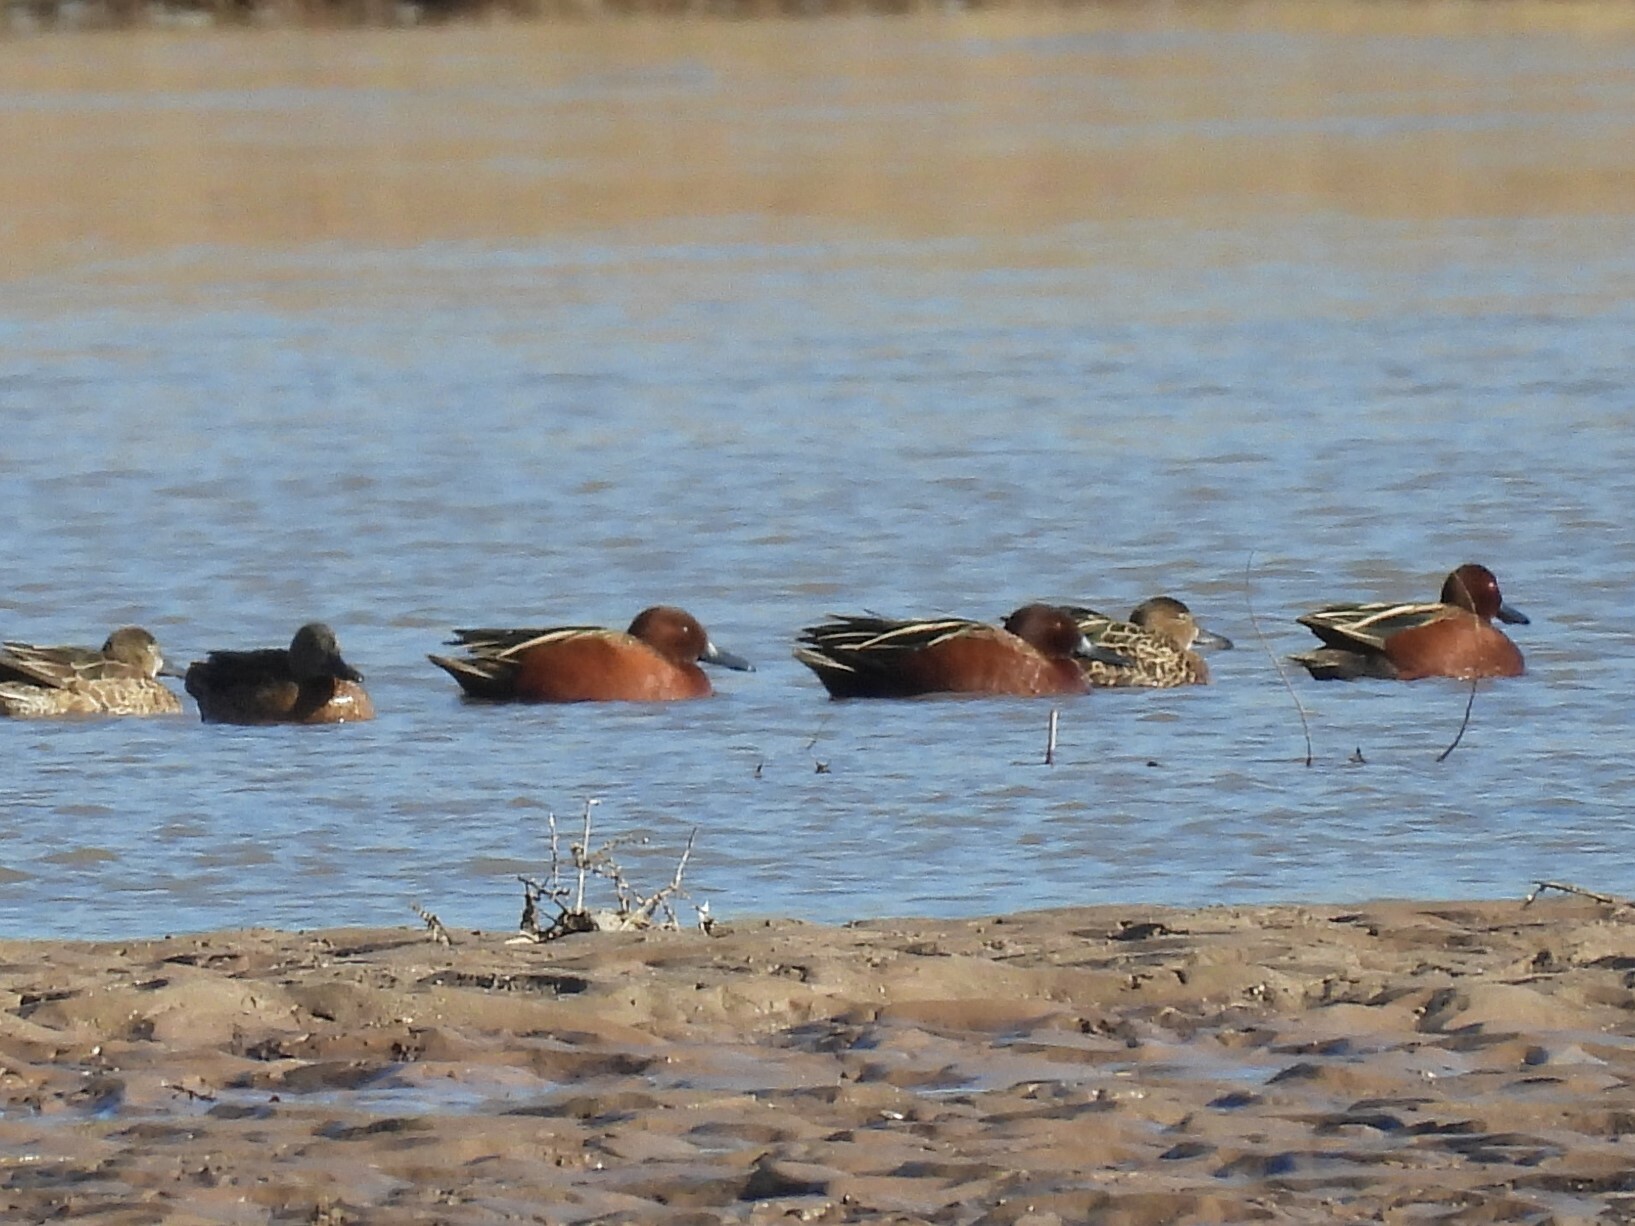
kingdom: Animalia
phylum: Chordata
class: Aves
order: Anseriformes
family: Anatidae
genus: Spatula
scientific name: Spatula cyanoptera
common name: Cinnamon teal
